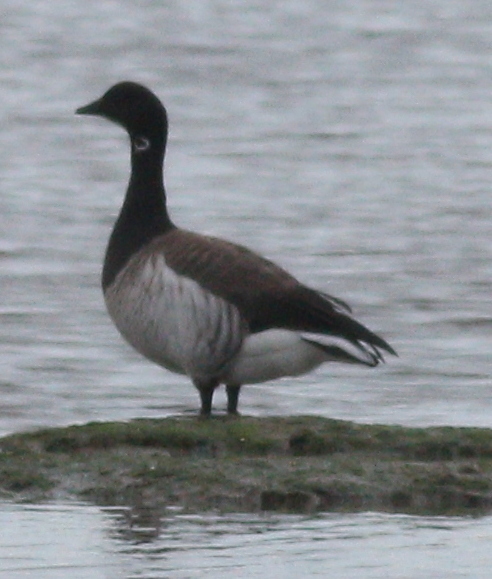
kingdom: Animalia
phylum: Chordata
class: Aves
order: Anseriformes
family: Anatidae
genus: Branta
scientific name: Branta bernicla
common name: Brant goose
